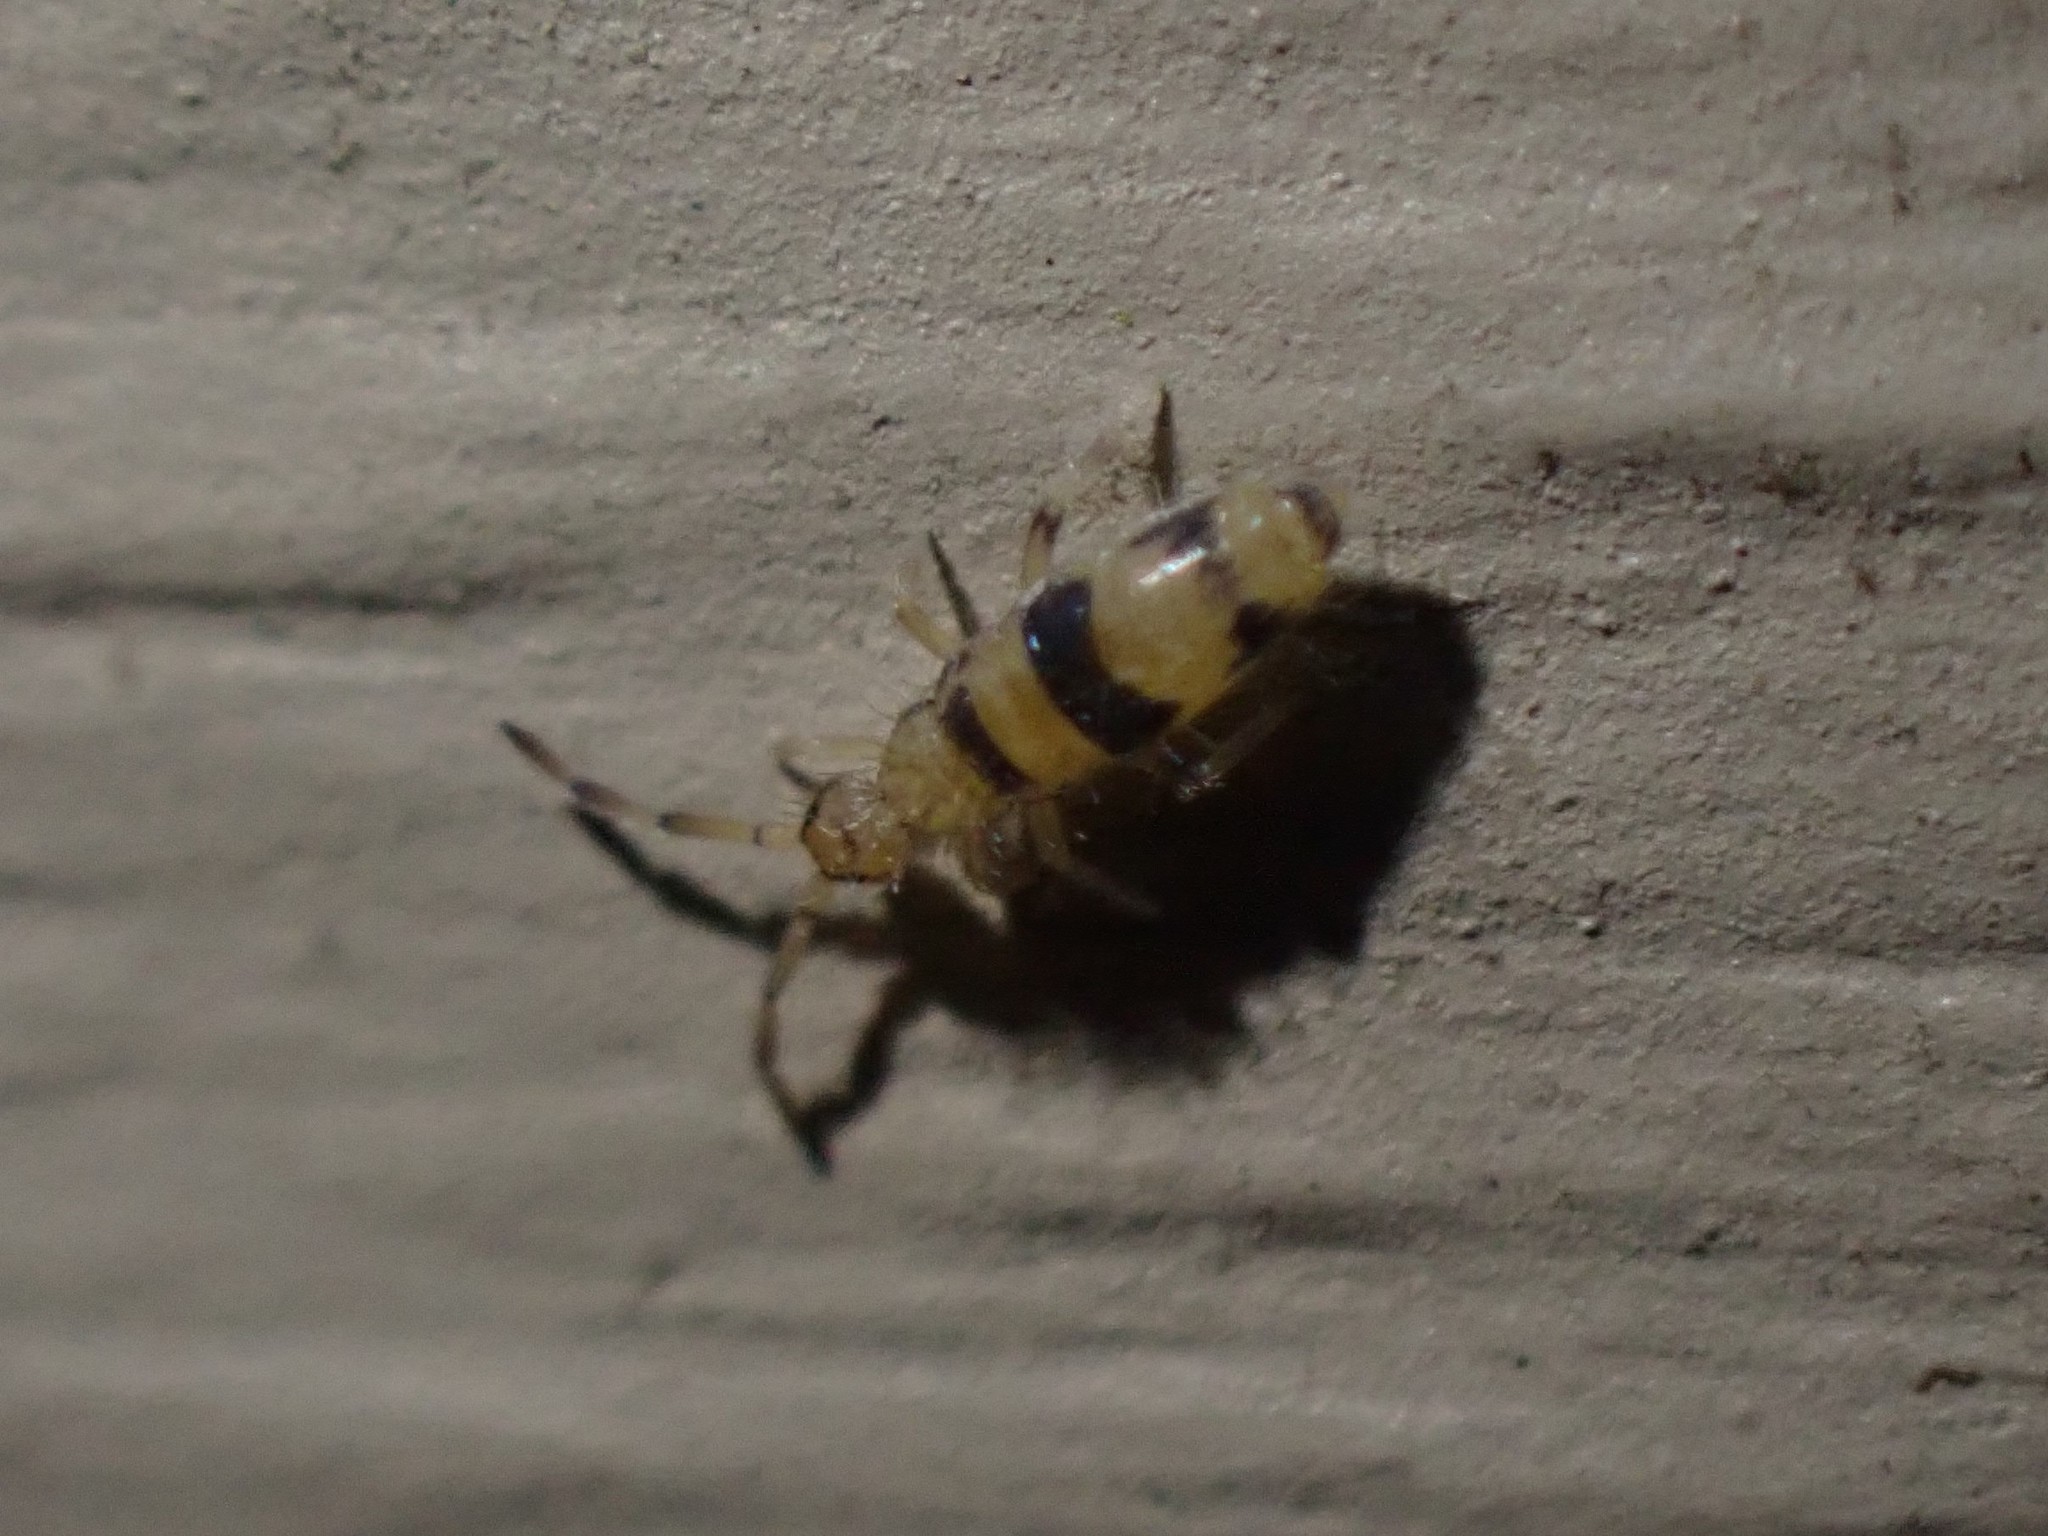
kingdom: Animalia
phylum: Arthropoda
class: Collembola
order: Entomobryomorpha
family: Entomobryidae
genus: Entomobrya
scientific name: Entomobrya triangularis
